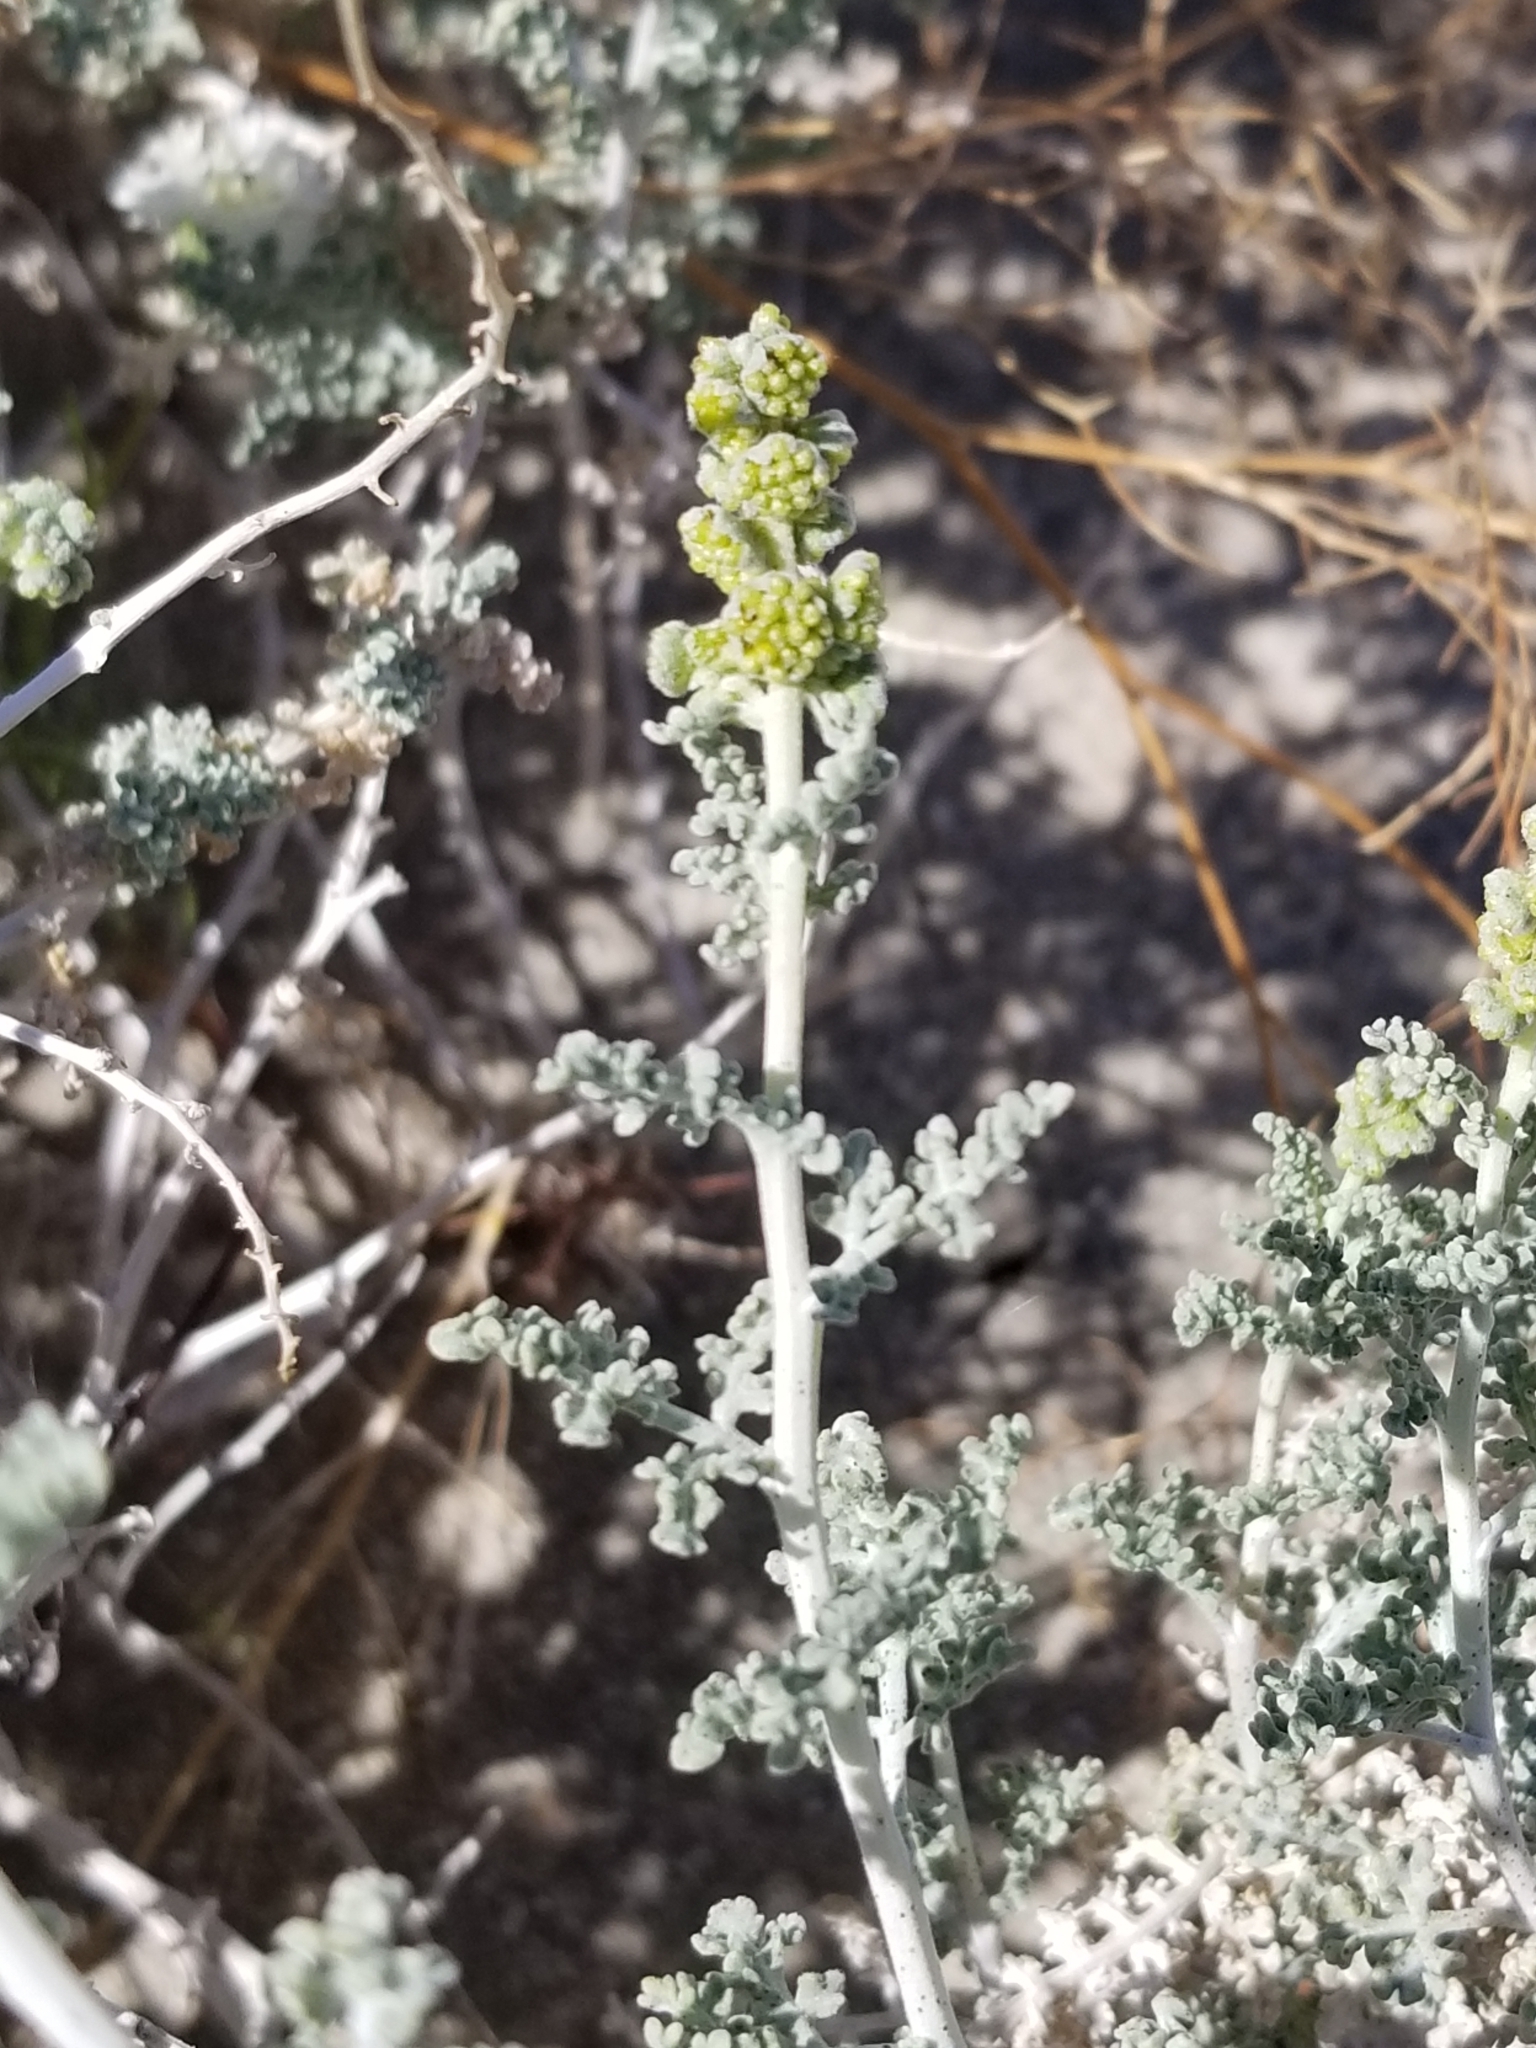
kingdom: Plantae
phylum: Tracheophyta
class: Magnoliopsida
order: Asterales
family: Asteraceae
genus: Ambrosia
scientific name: Ambrosia dumosa
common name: Bur-sage
